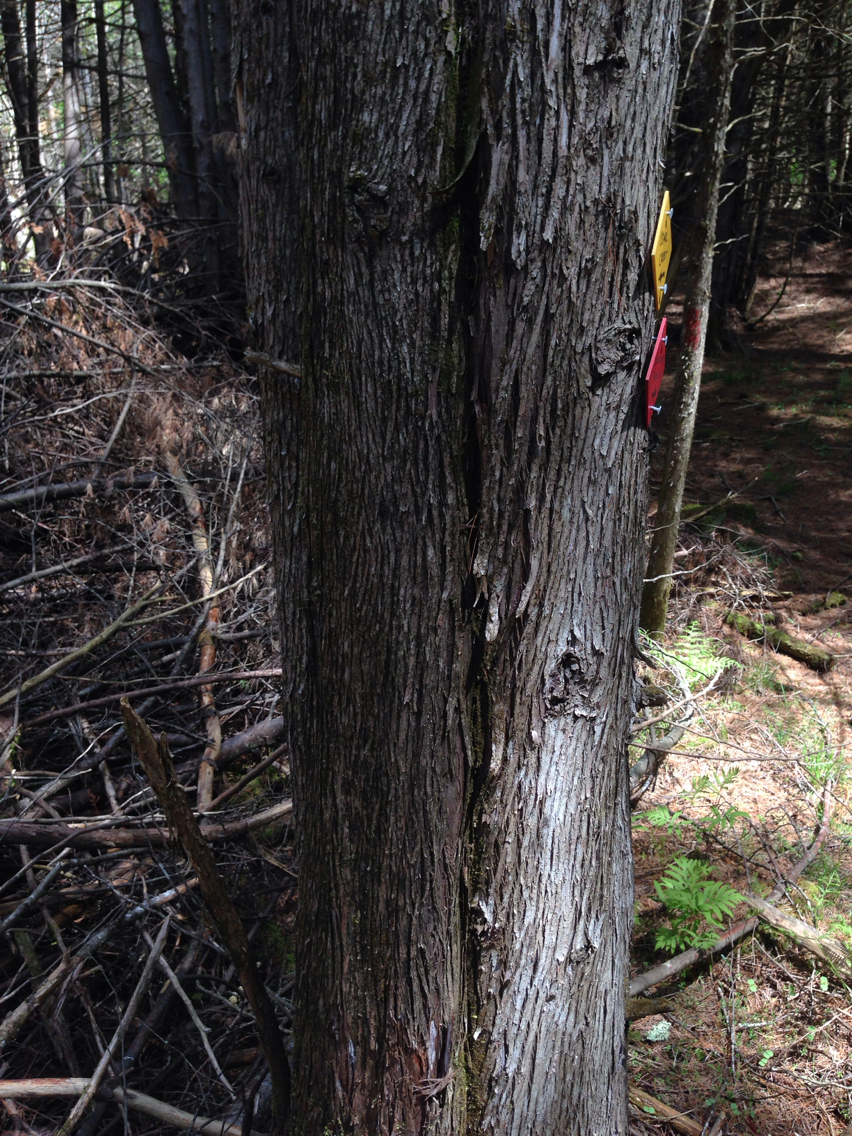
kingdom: Plantae
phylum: Tracheophyta
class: Pinopsida
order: Pinales
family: Cupressaceae
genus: Thuja
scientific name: Thuja occidentalis
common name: Northern white-cedar
